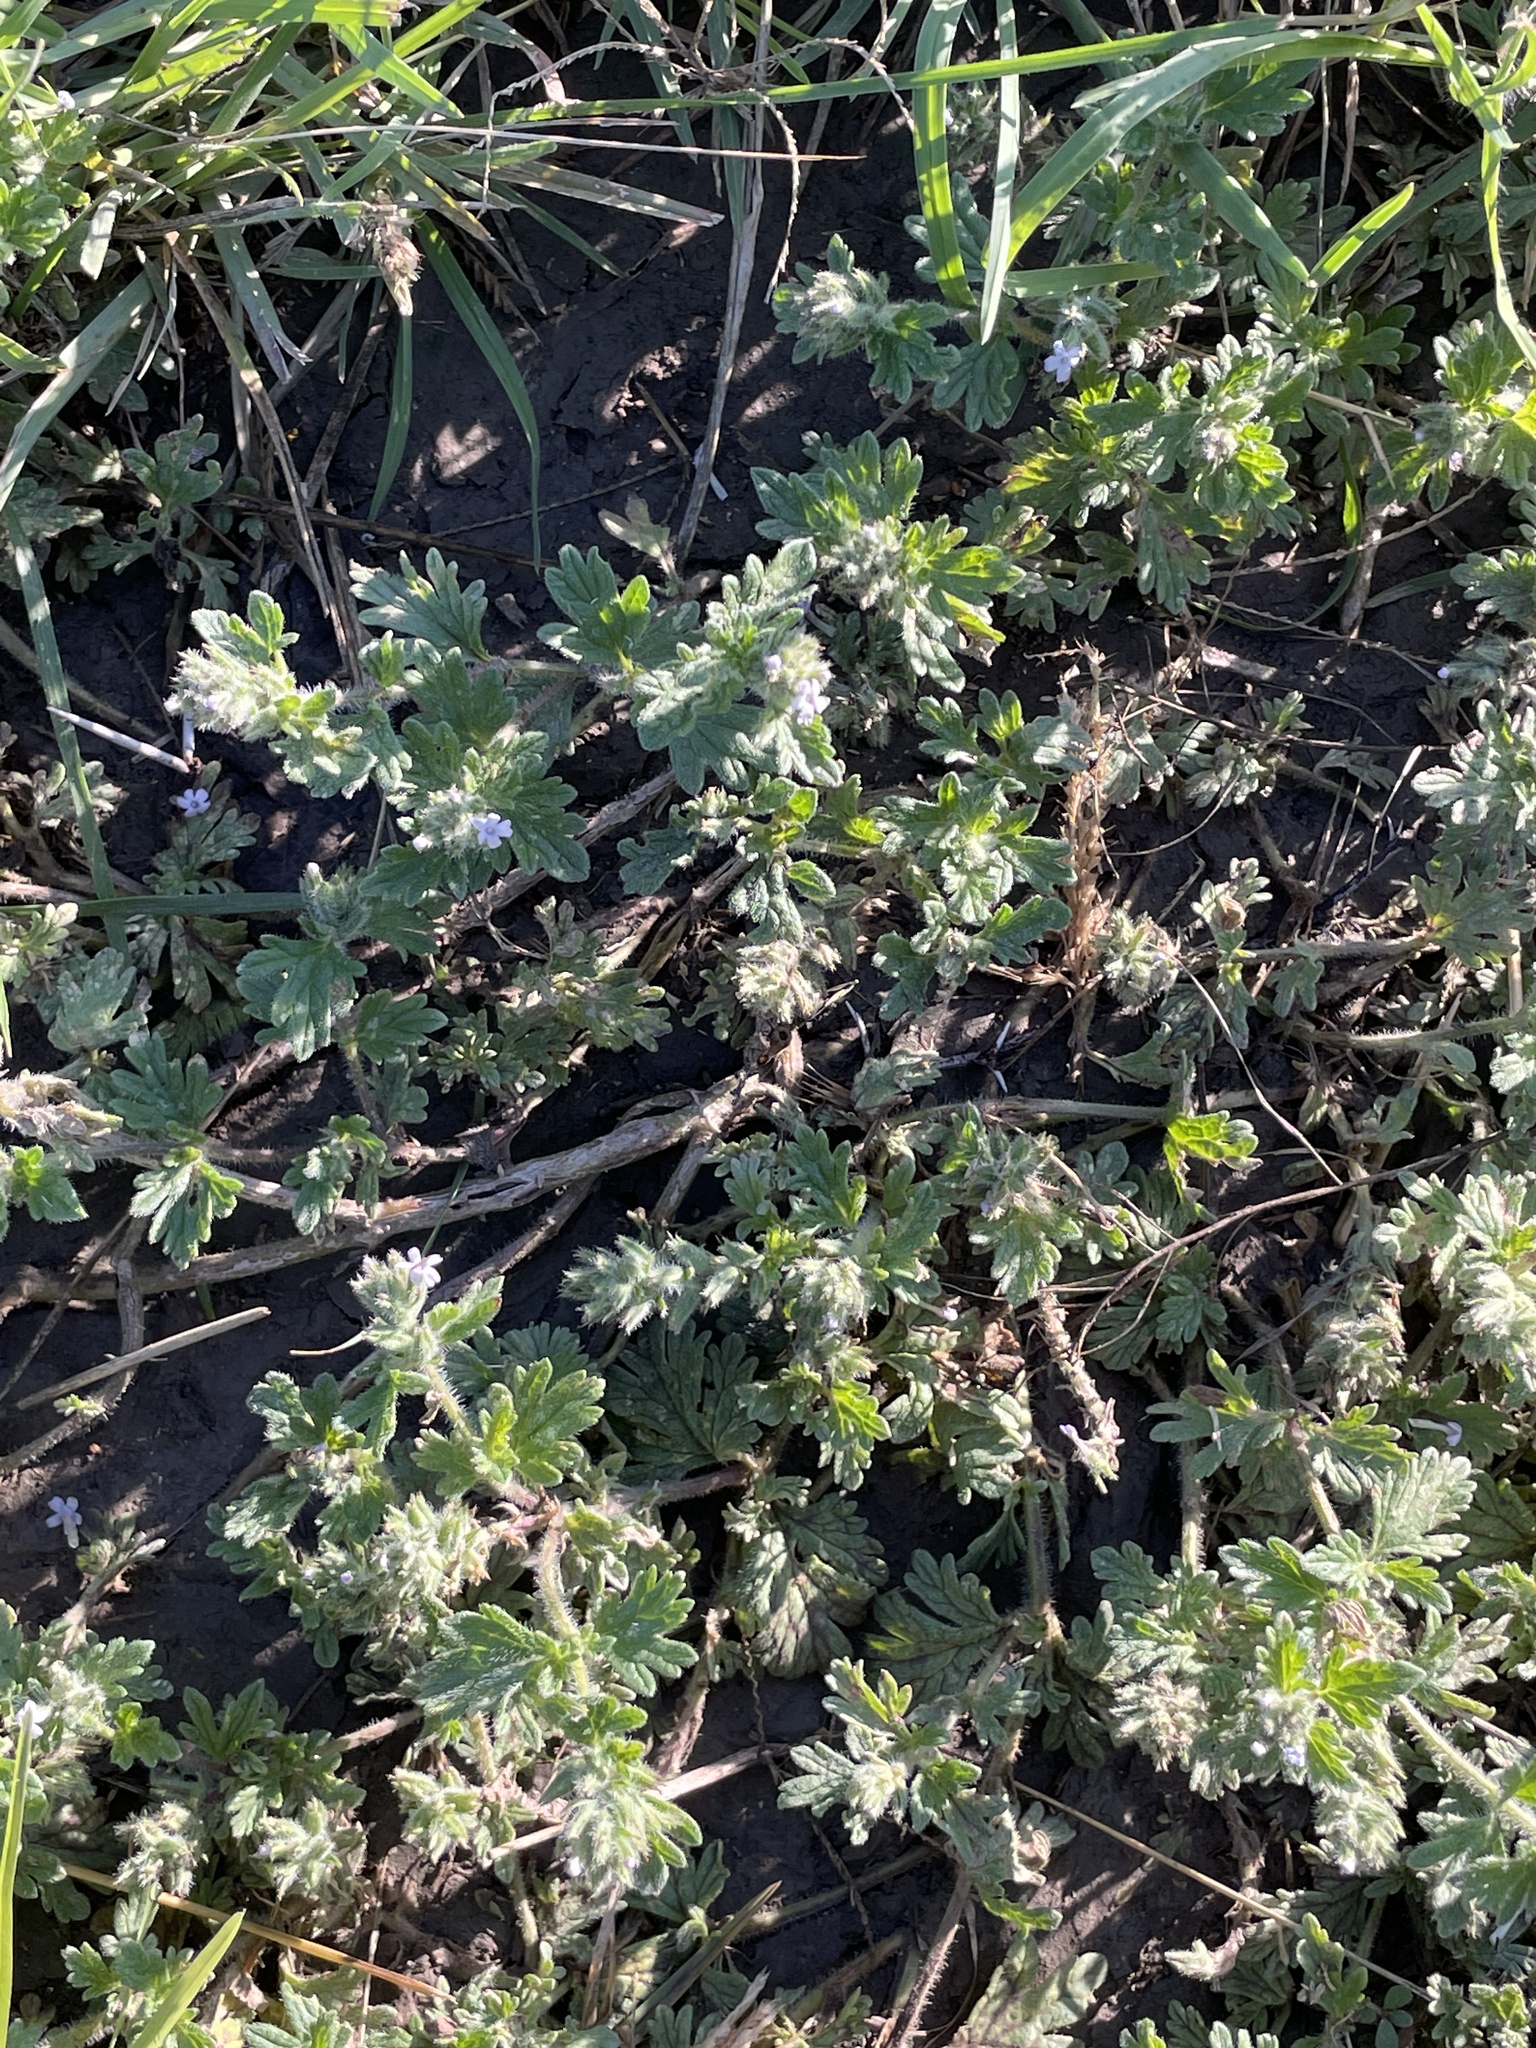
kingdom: Plantae
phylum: Tracheophyta
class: Magnoliopsida
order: Lamiales
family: Verbenaceae
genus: Verbena
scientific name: Verbena quadrangulata
